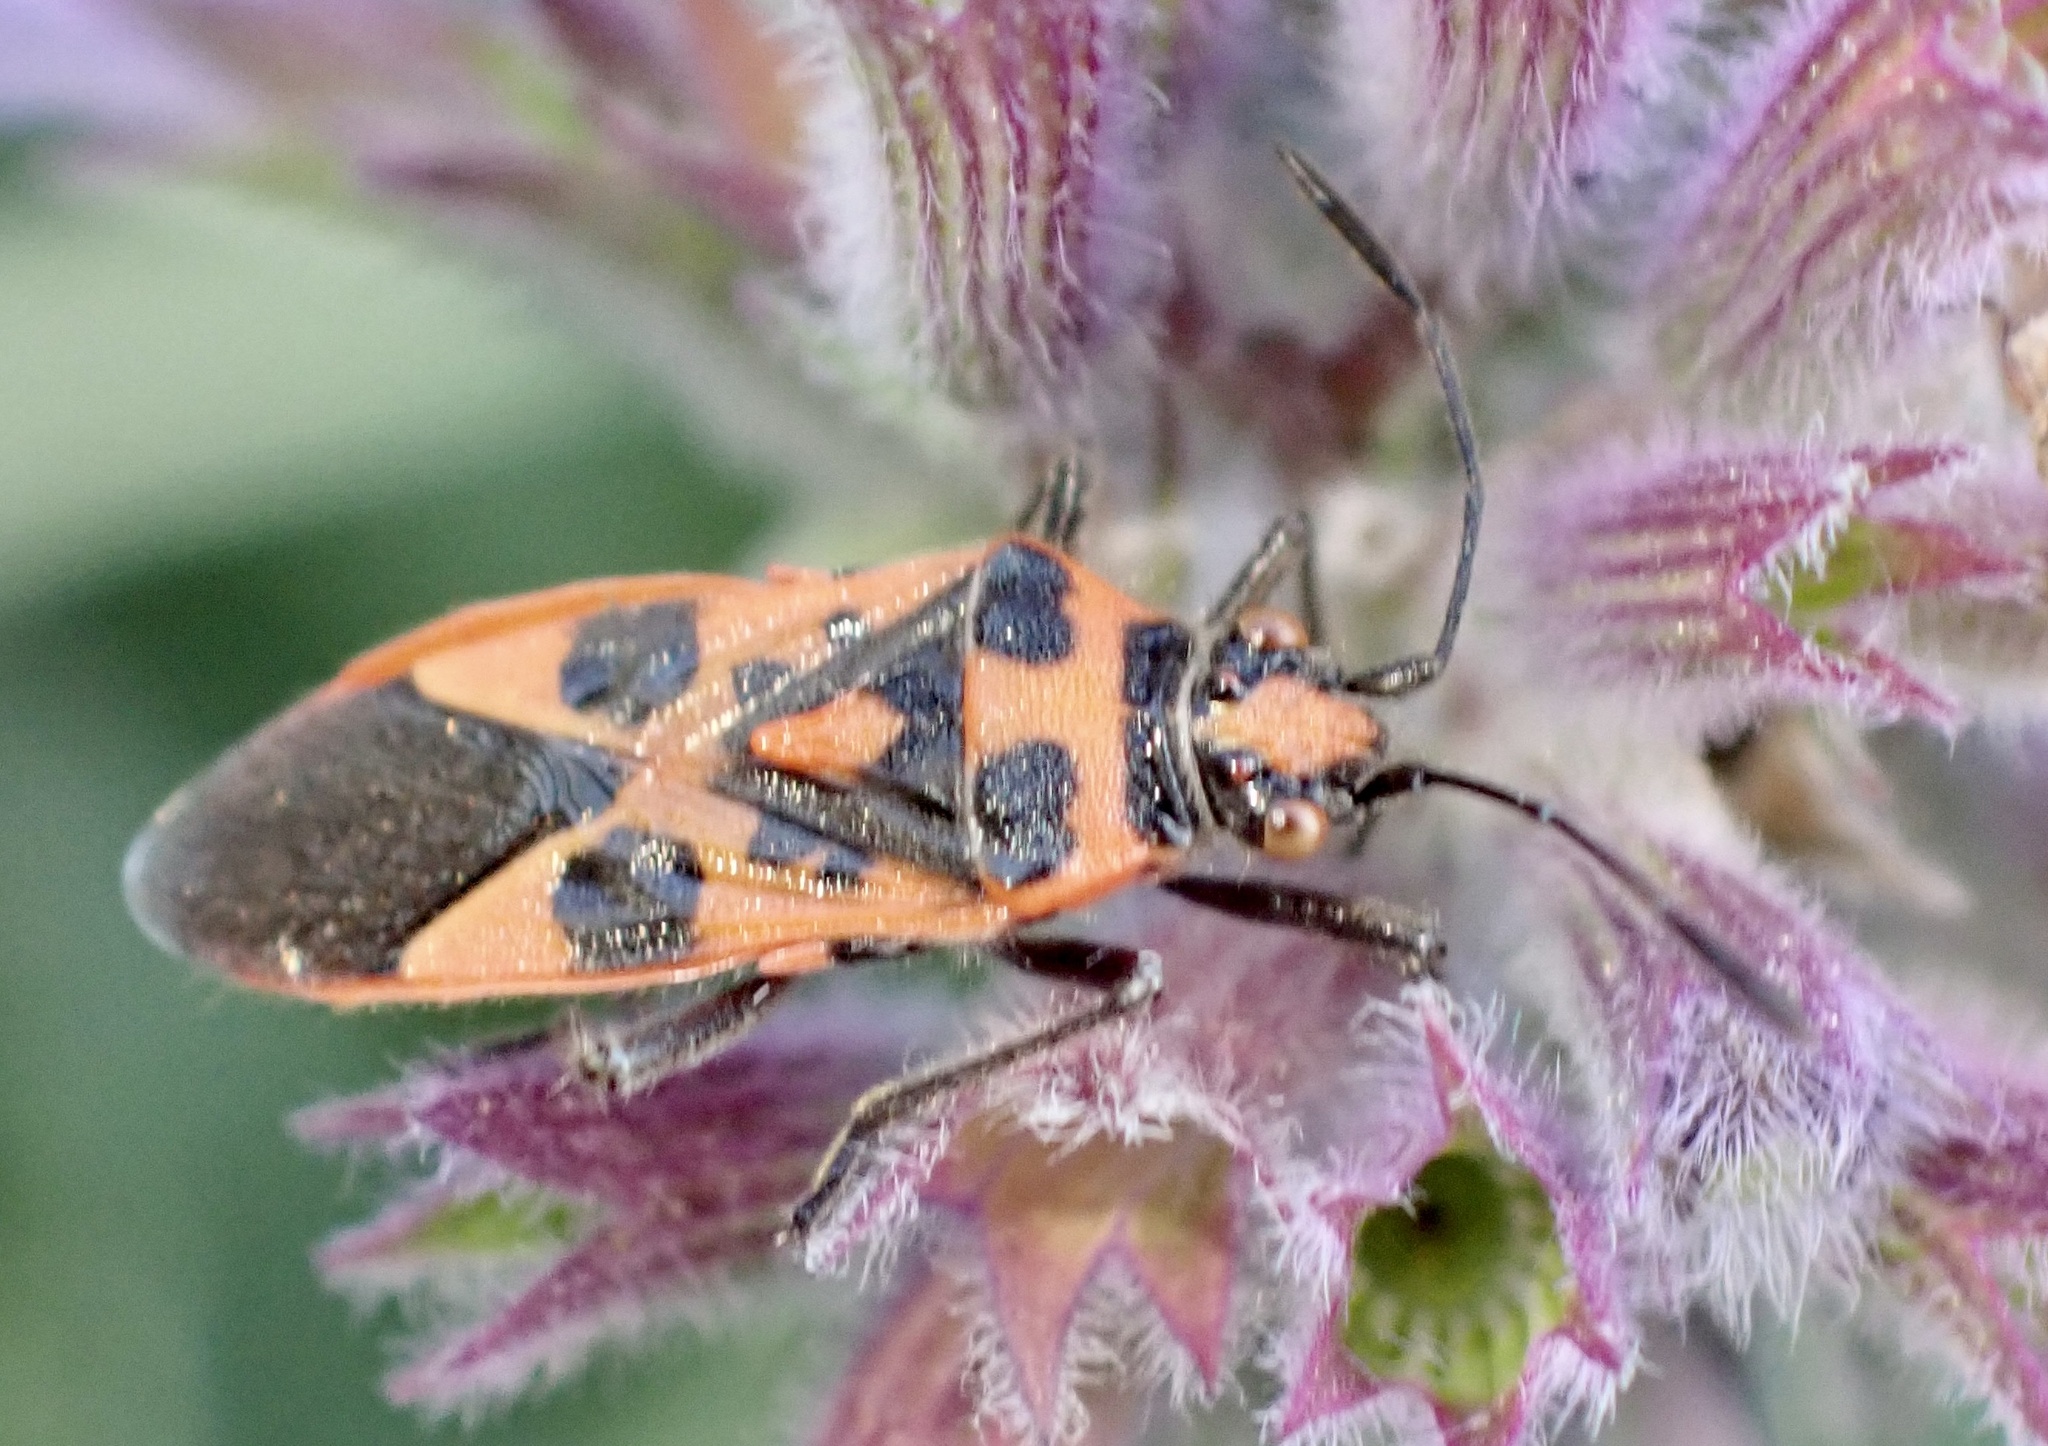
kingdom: Animalia
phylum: Arthropoda
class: Insecta
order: Hemiptera
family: Rhopalidae
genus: Corizus
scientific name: Corizus hyoscyami
